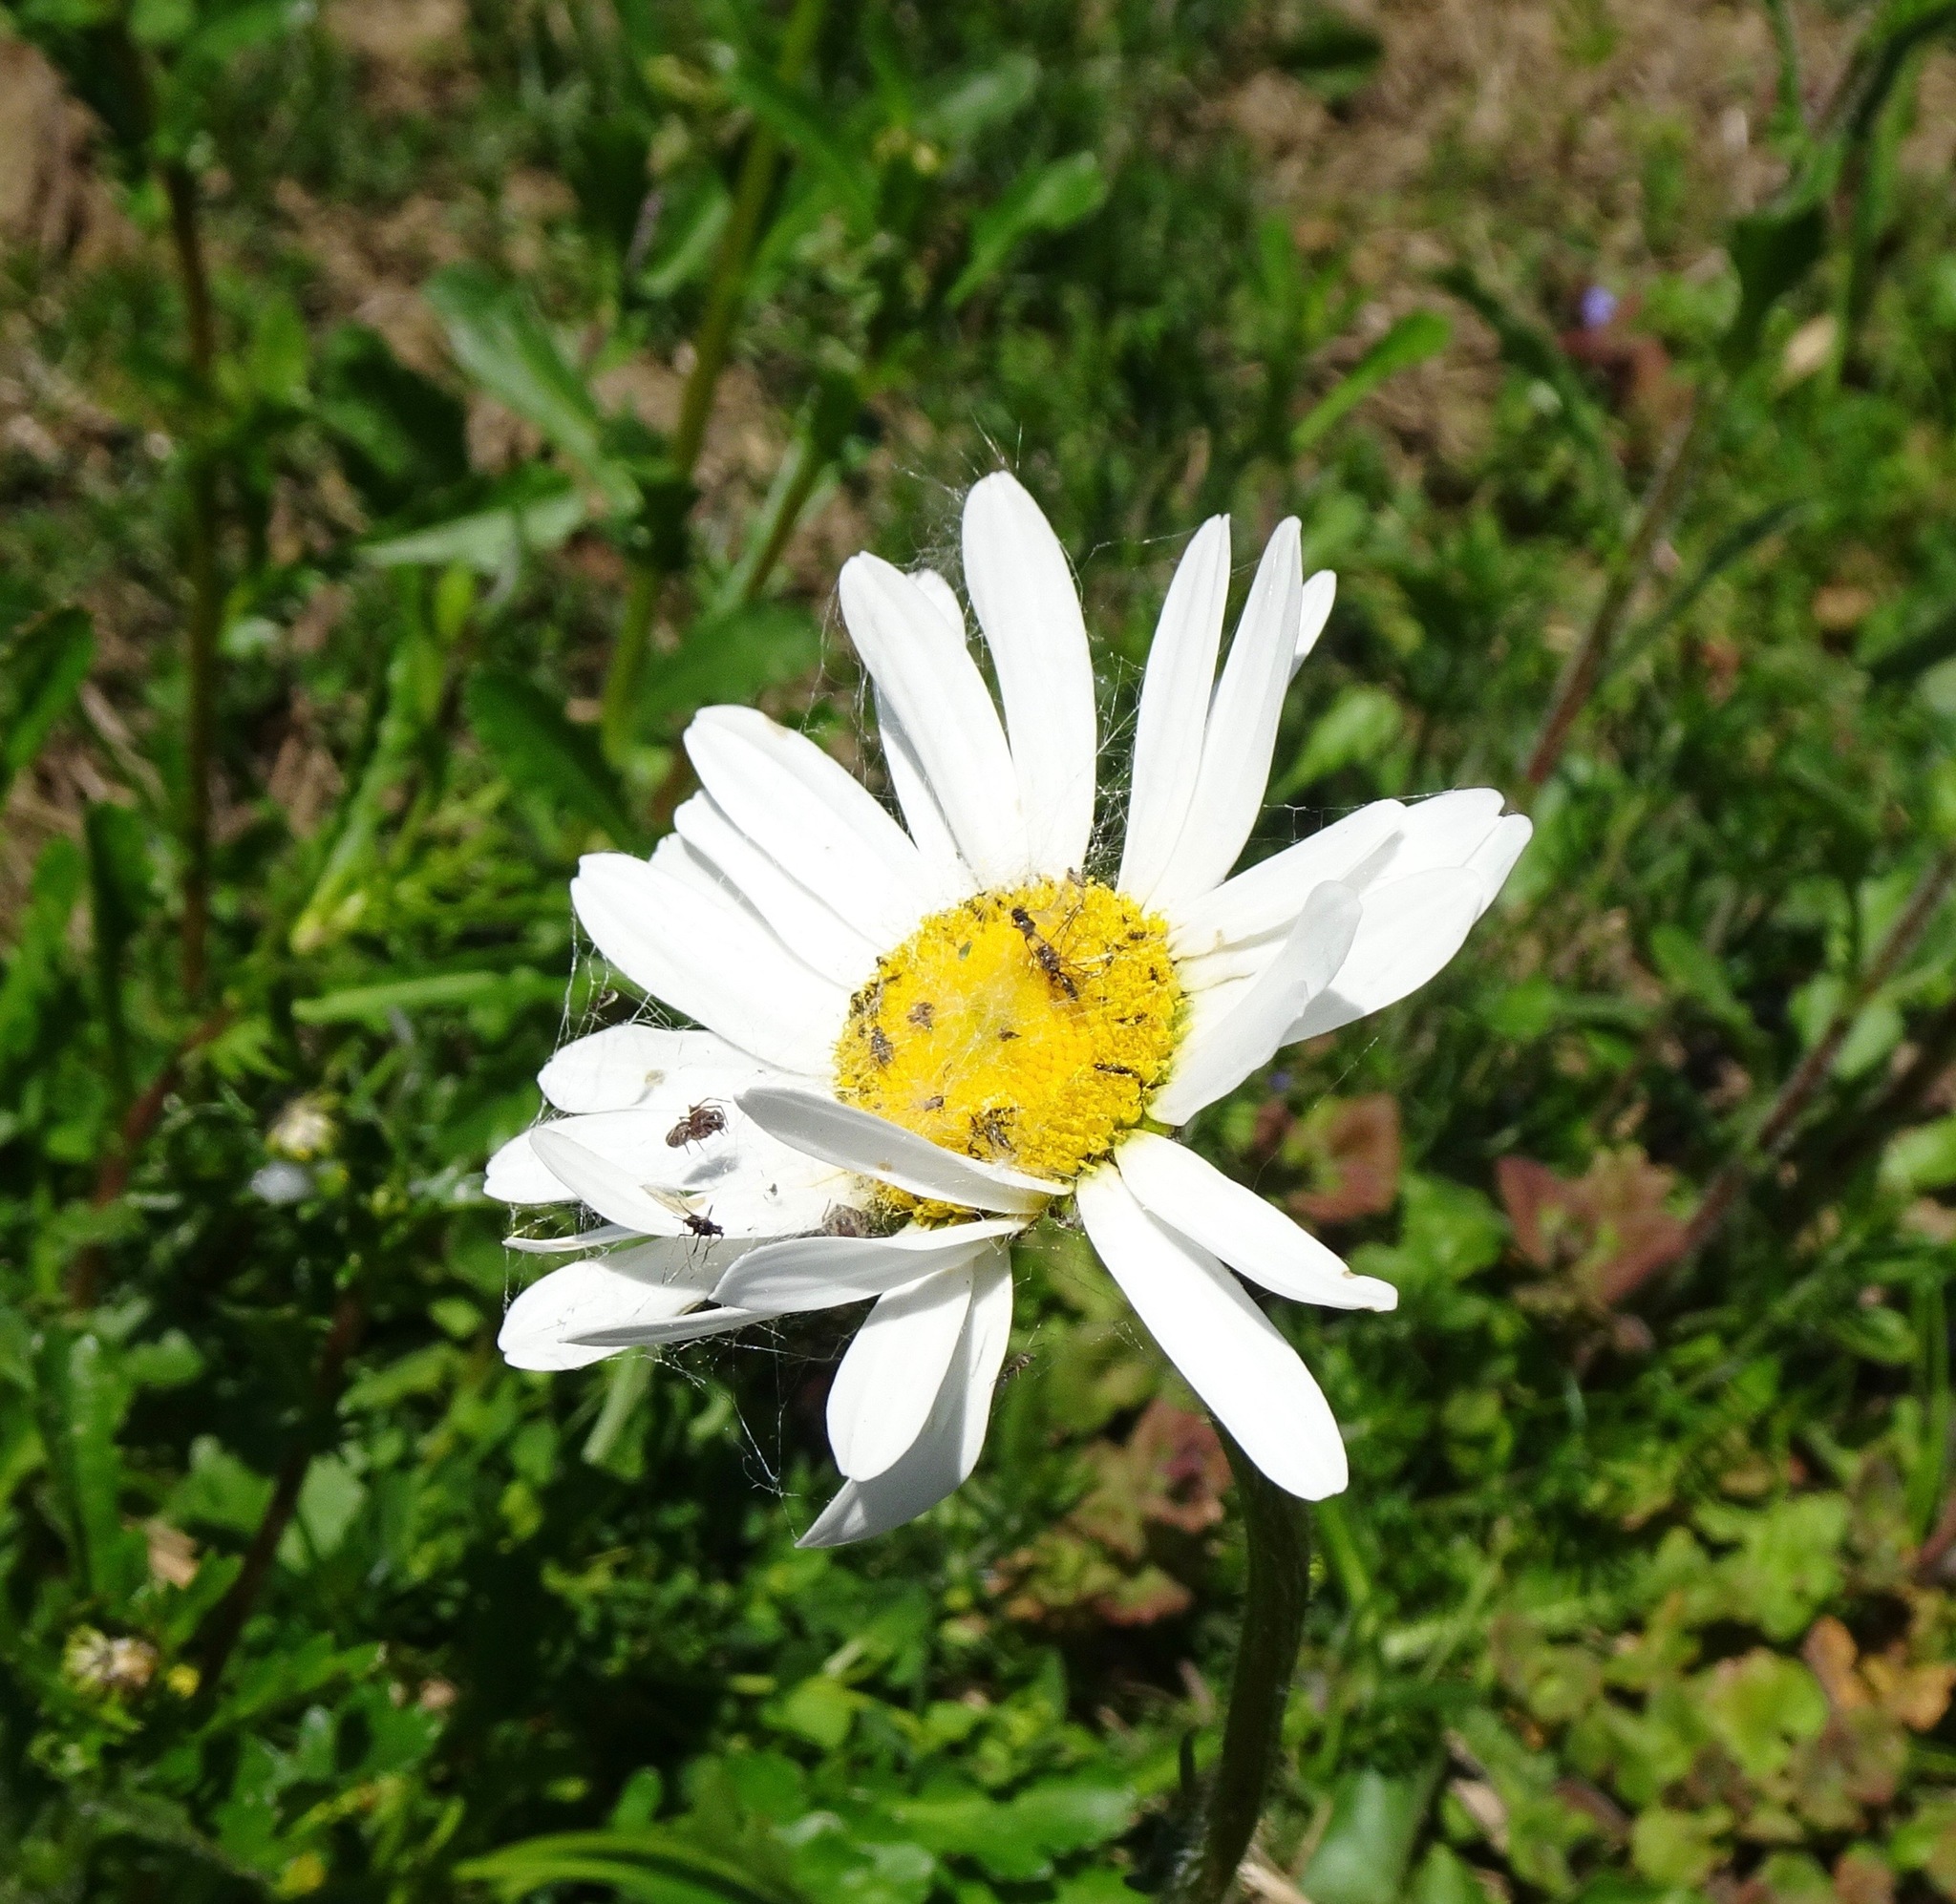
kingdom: Plantae
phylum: Tracheophyta
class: Magnoliopsida
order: Asterales
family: Asteraceae
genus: Leucanthemum
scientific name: Leucanthemum vulgare
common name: Oxeye daisy
